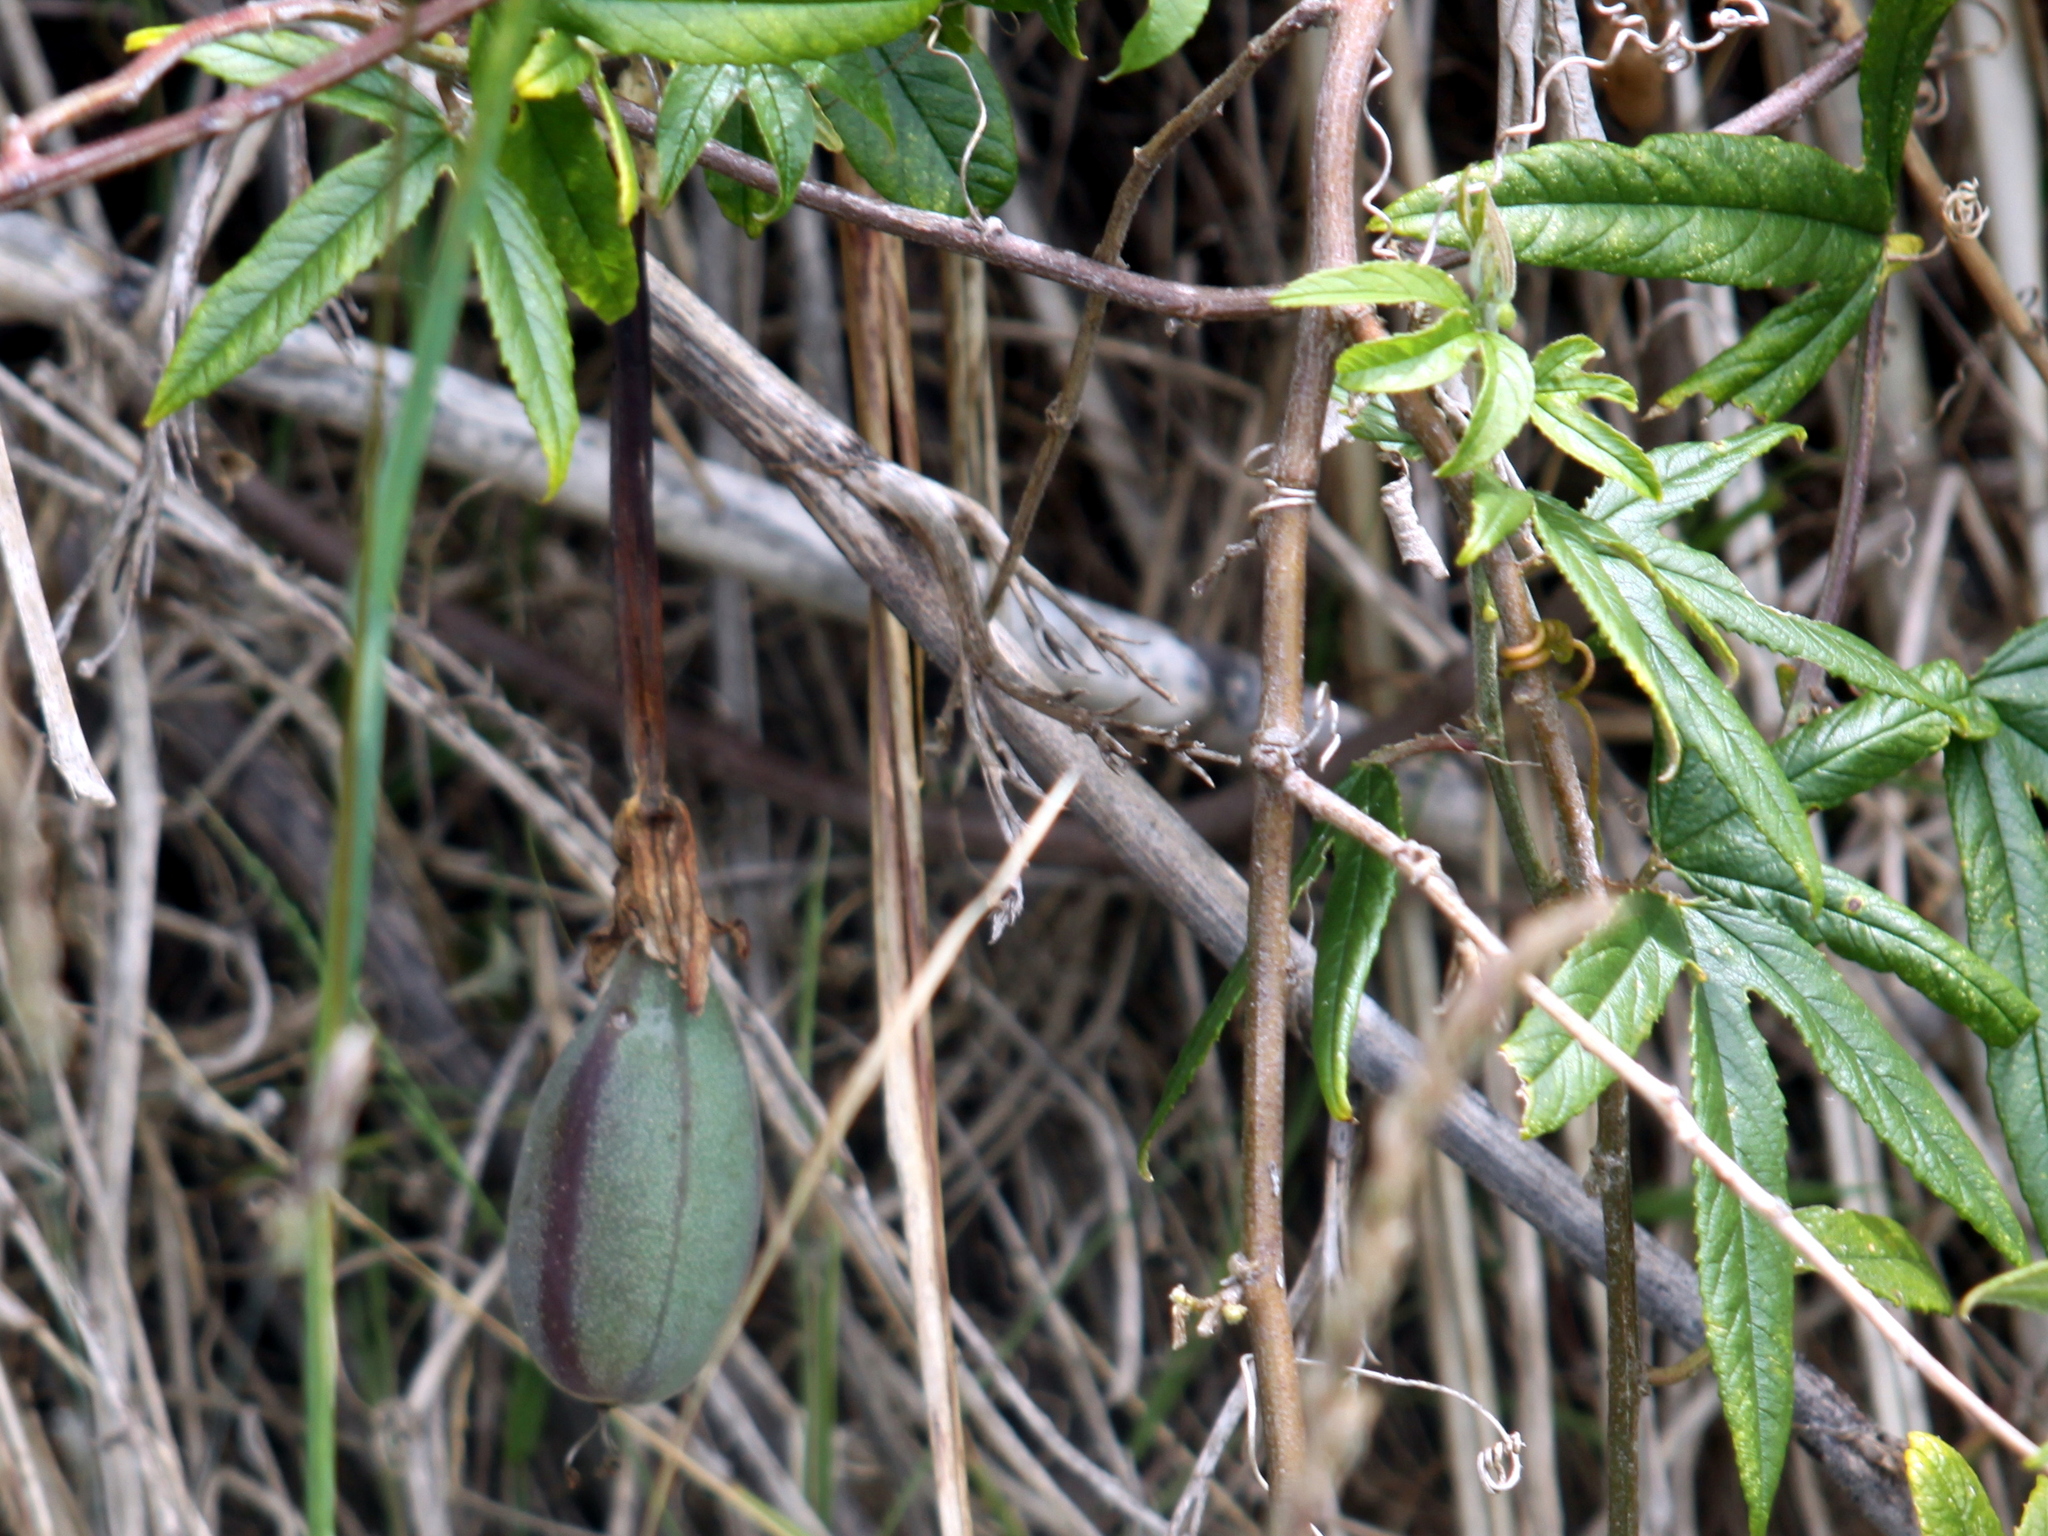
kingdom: Plantae
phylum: Tracheophyta
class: Magnoliopsida
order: Malpighiales
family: Passifloraceae
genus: Passiflora
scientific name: Passiflora tripartita
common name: Banana poka
